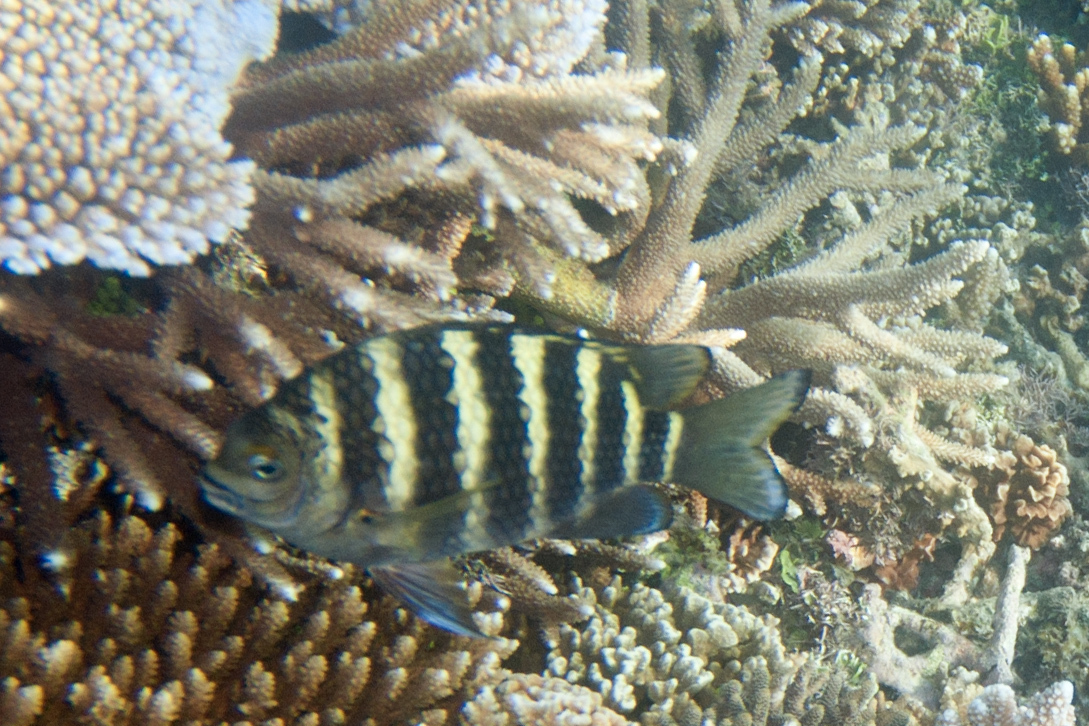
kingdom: Animalia
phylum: Chordata
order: Perciformes
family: Pomacentridae
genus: Abudefduf
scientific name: Abudefduf septemfasciatus
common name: Banded sergeant
